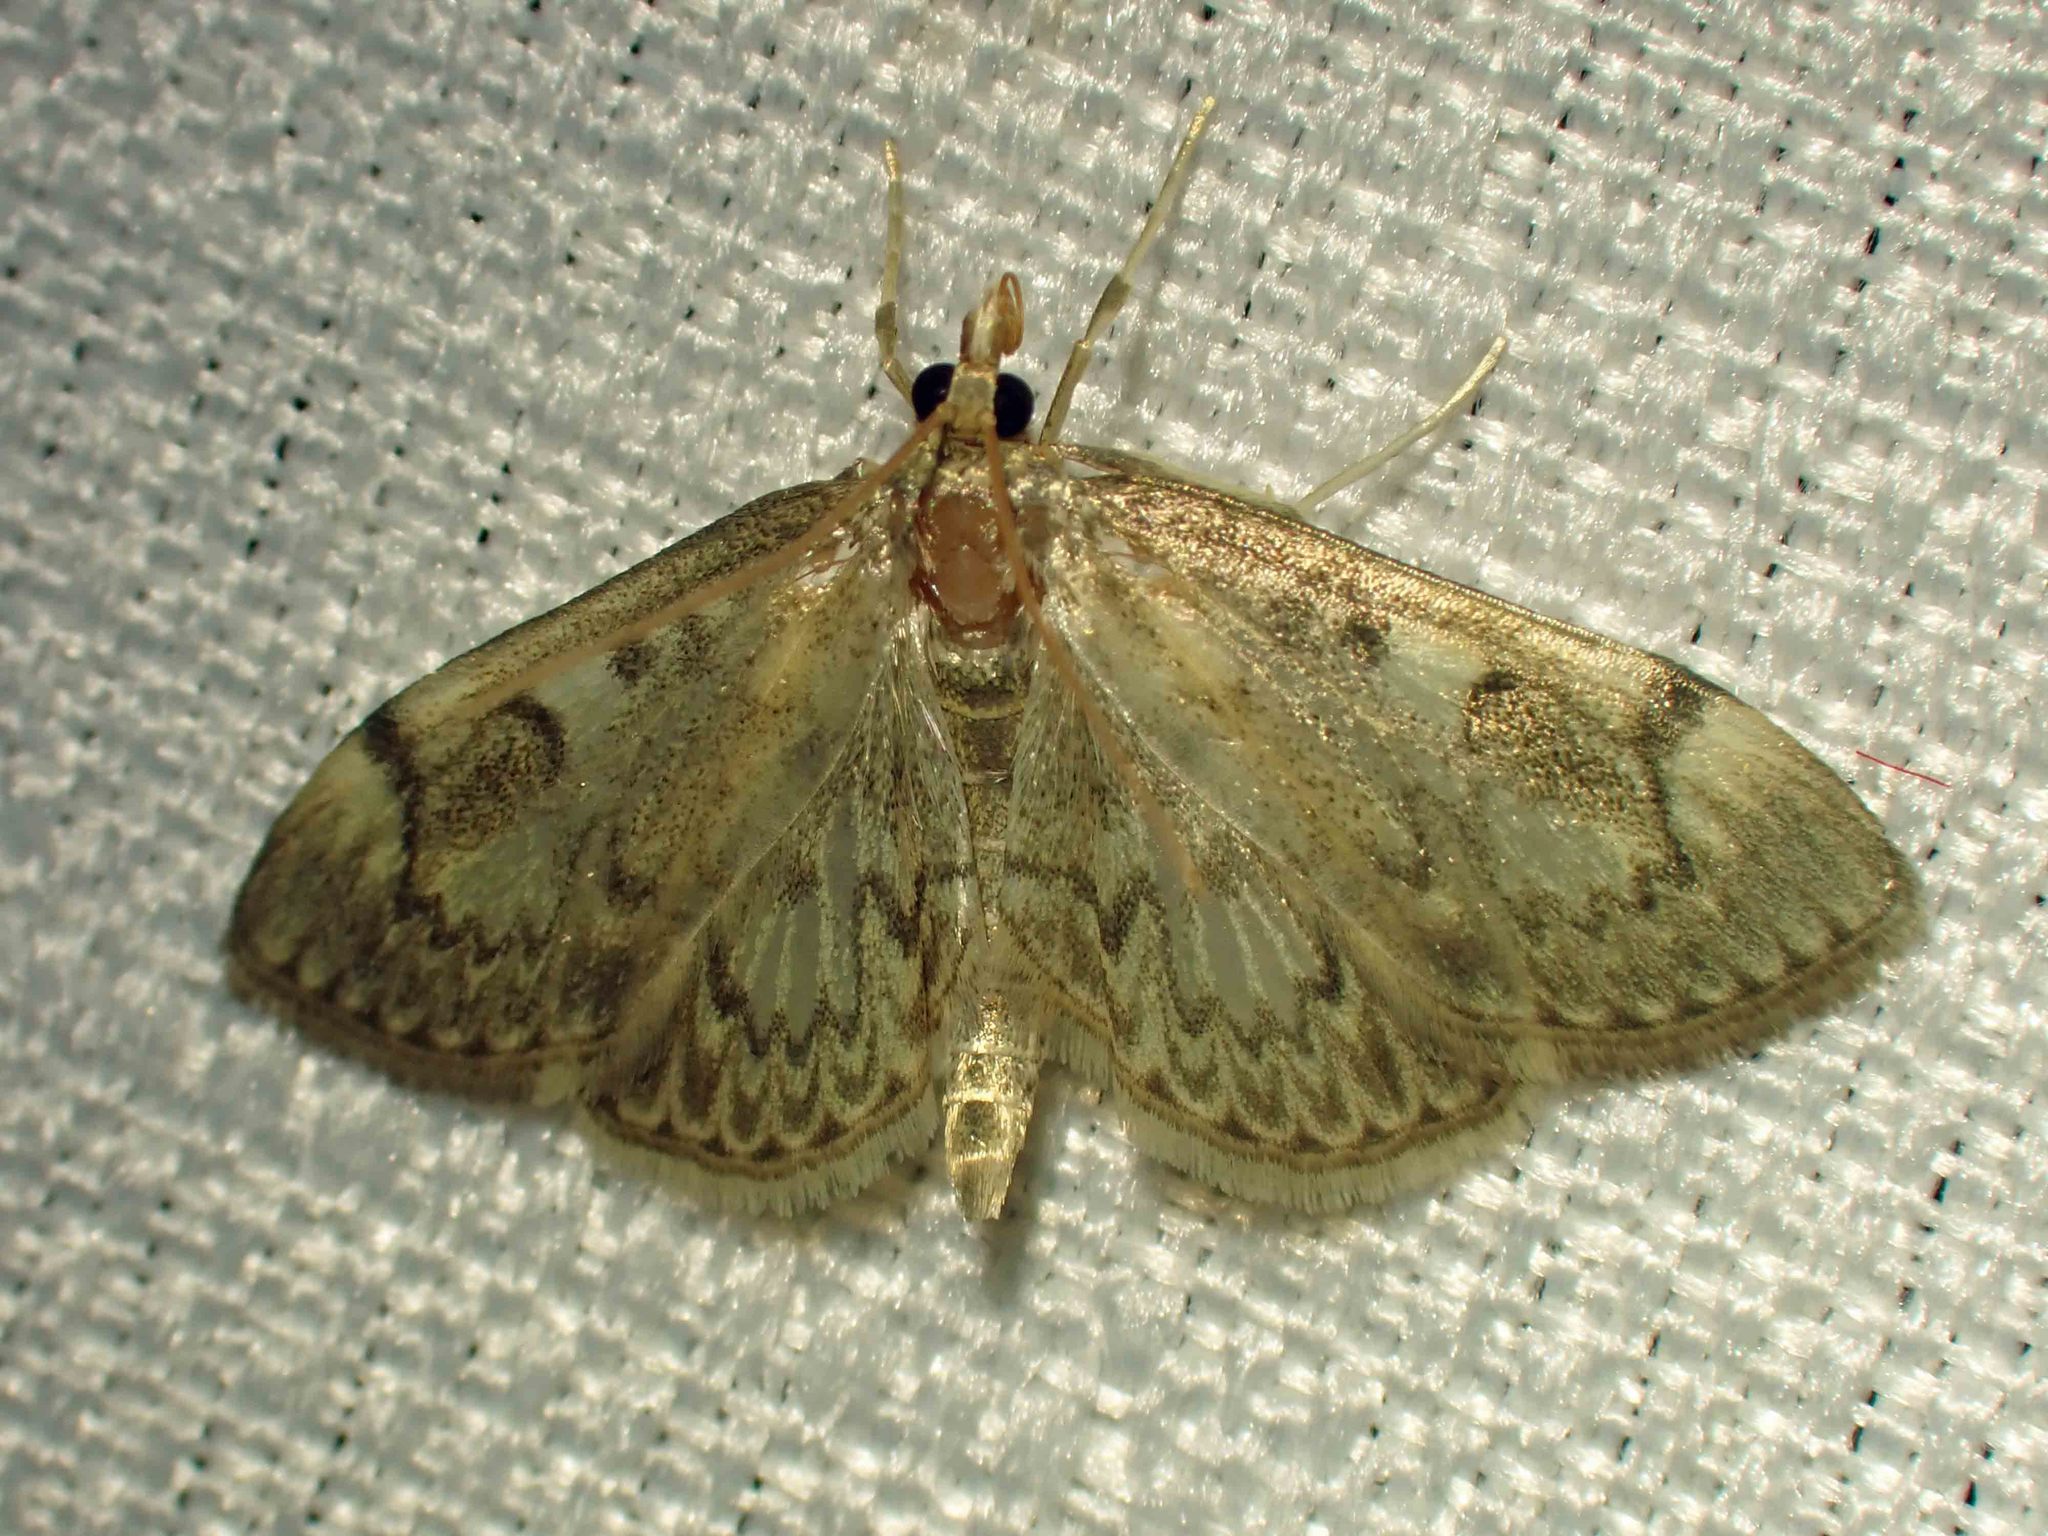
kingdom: Animalia
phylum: Arthropoda
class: Insecta
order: Lepidoptera
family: Crambidae
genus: Anania
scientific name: Anania
